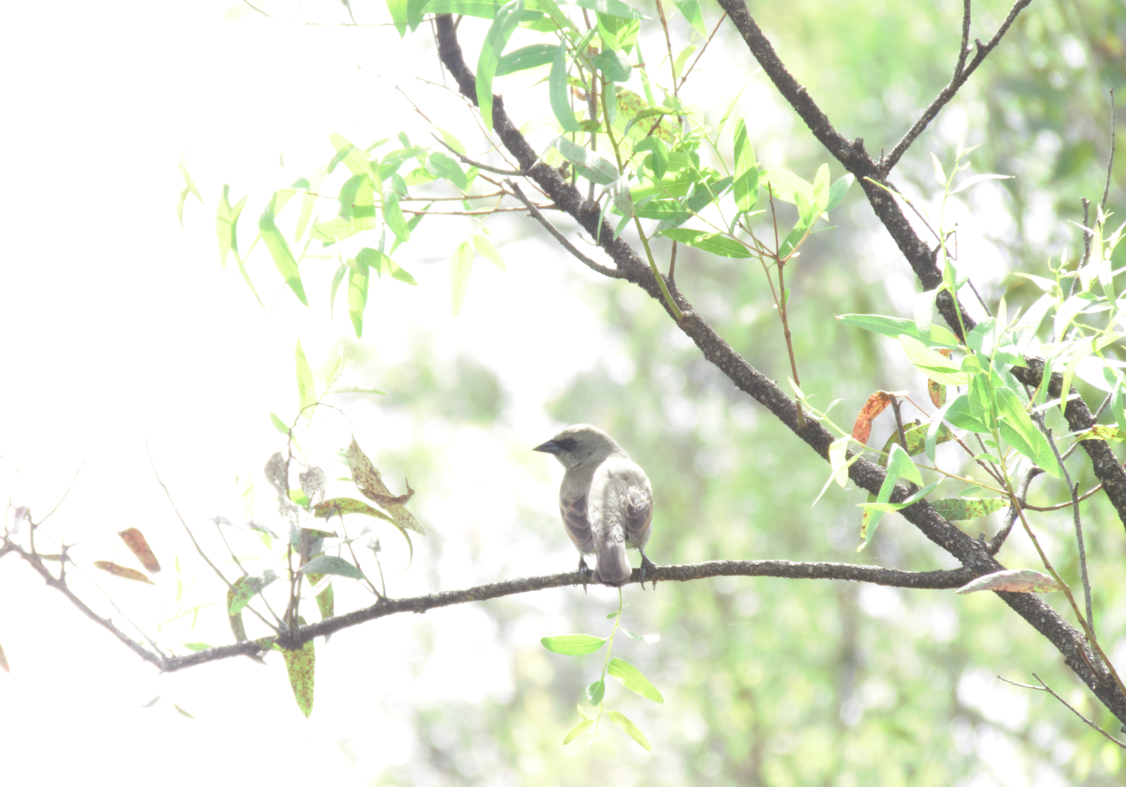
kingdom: Animalia
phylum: Chordata
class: Aves
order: Passeriformes
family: Icteridae
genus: Agelaioides
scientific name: Agelaioides badius
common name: Baywing
